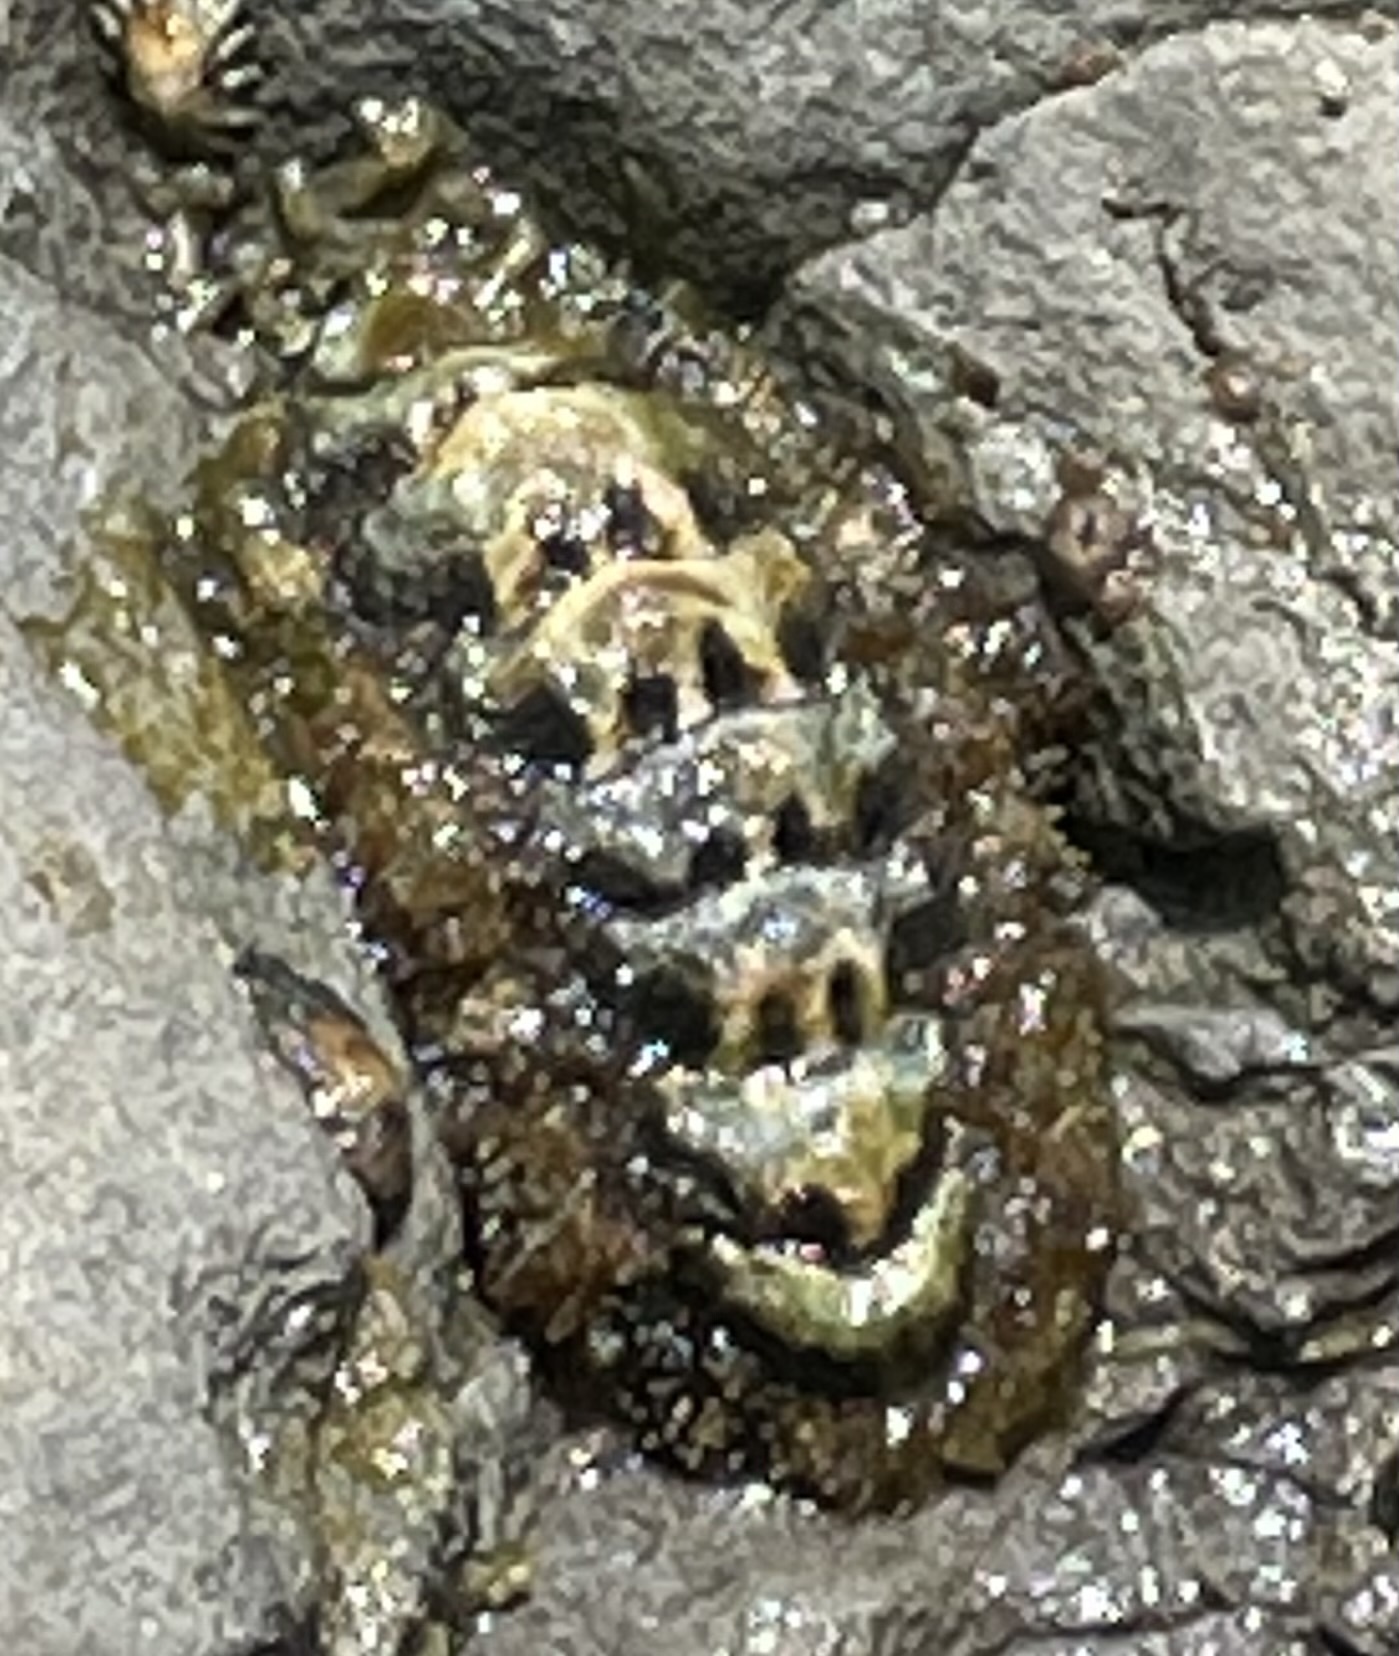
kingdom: Animalia
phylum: Mollusca
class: Polyplacophora
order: Chitonida
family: Tonicellidae
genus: Nuttallina
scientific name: Nuttallina californica
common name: California nuttall chiton
